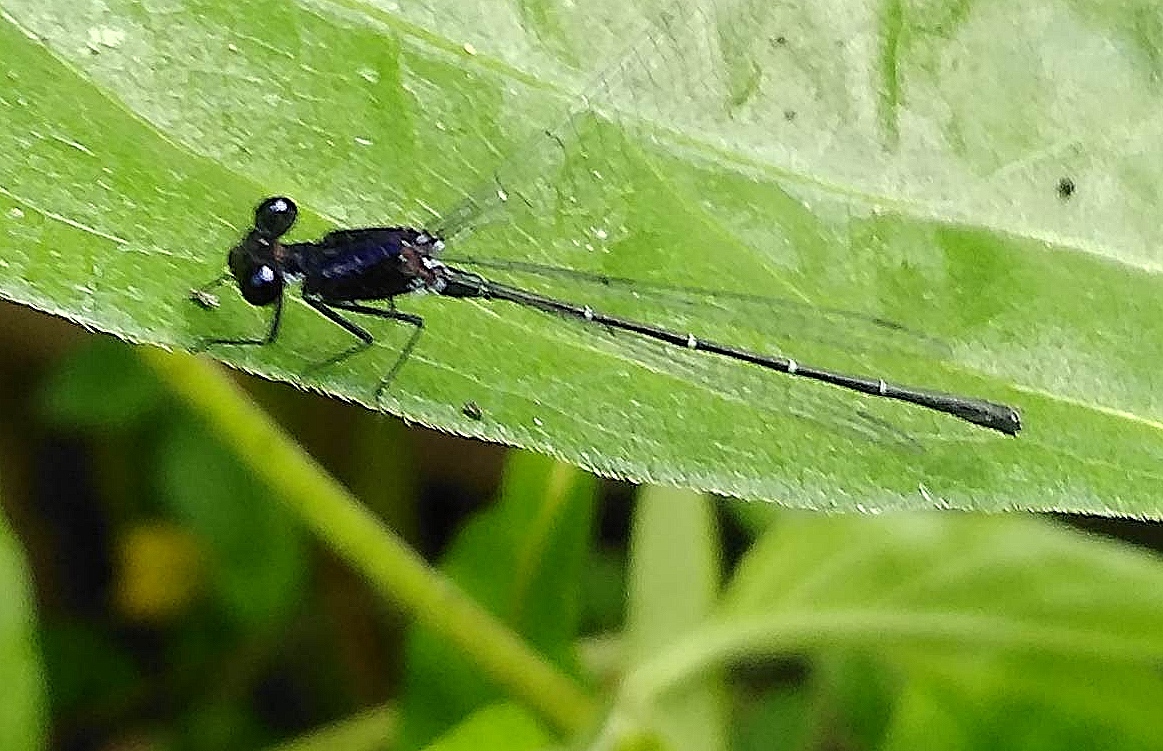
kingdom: Animalia
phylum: Arthropoda
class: Insecta
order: Odonata
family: Platycnemididae
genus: Onychargia
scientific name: Onychargia atrocyana
